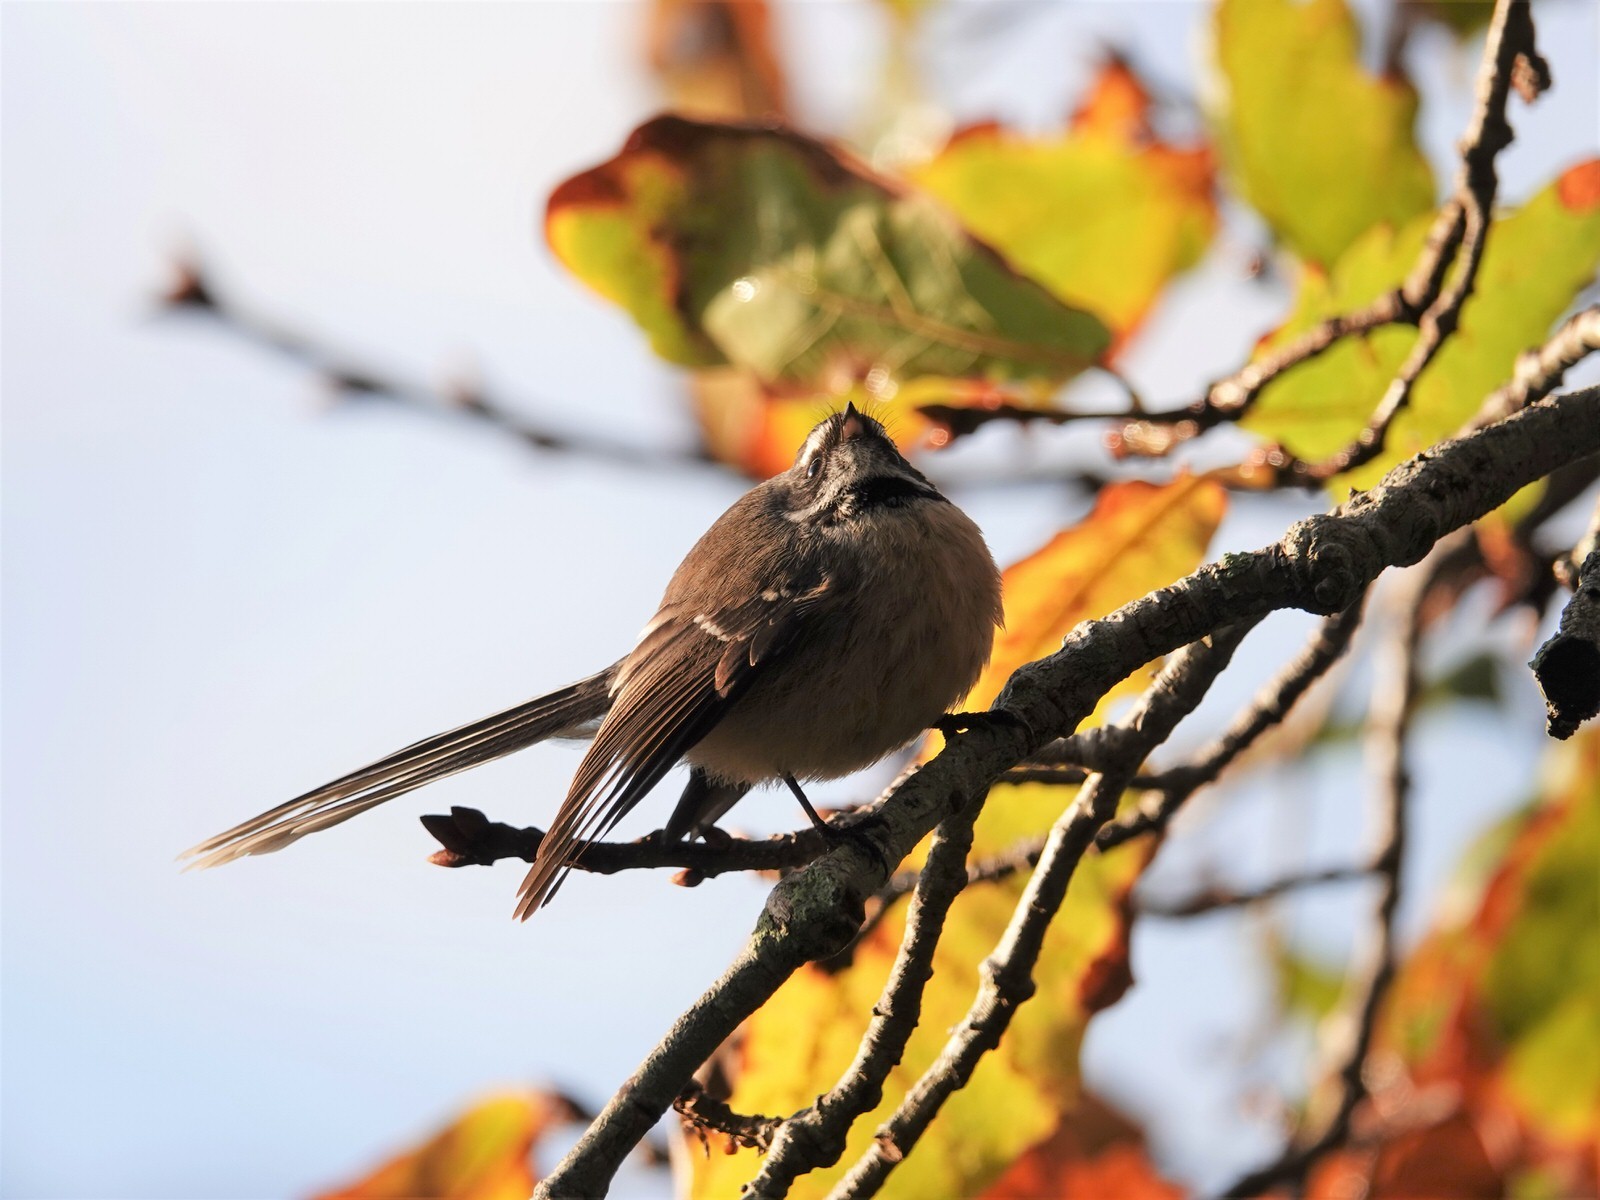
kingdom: Animalia
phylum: Chordata
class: Aves
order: Passeriformes
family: Rhipiduridae
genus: Rhipidura
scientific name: Rhipidura fuliginosa
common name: New zealand fantail
